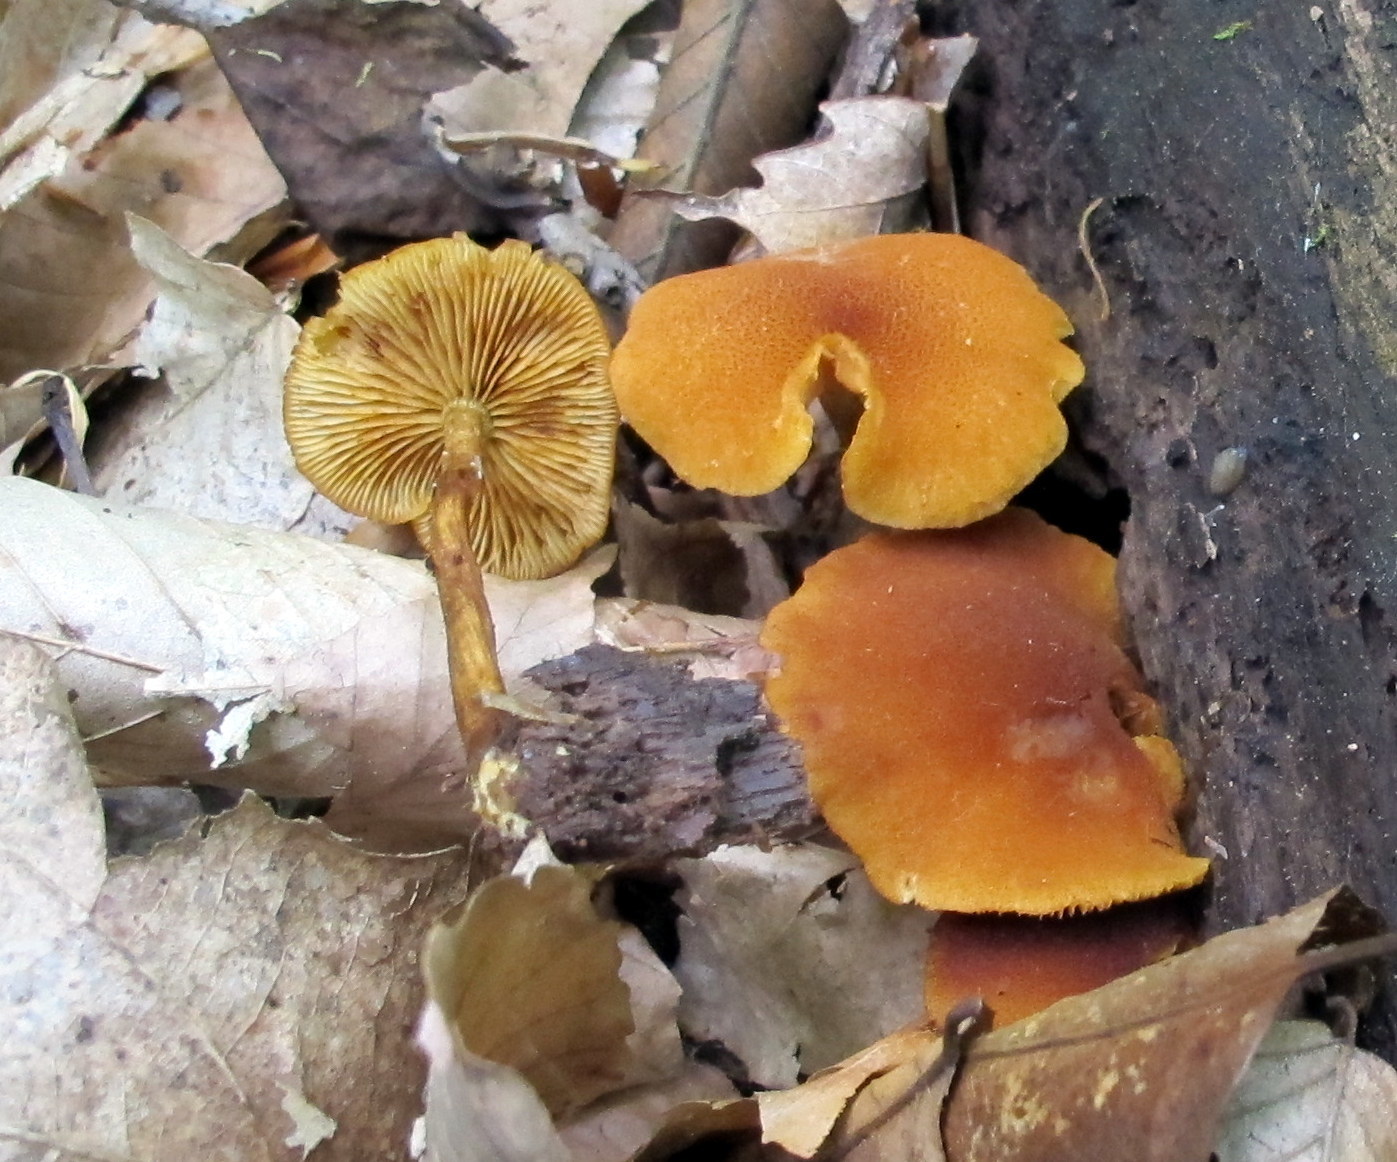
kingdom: Fungi
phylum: Basidiomycota
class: Agaricomycetes
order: Agaricales
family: Strophariaceae
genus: Pholiota
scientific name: Pholiota granulosa
